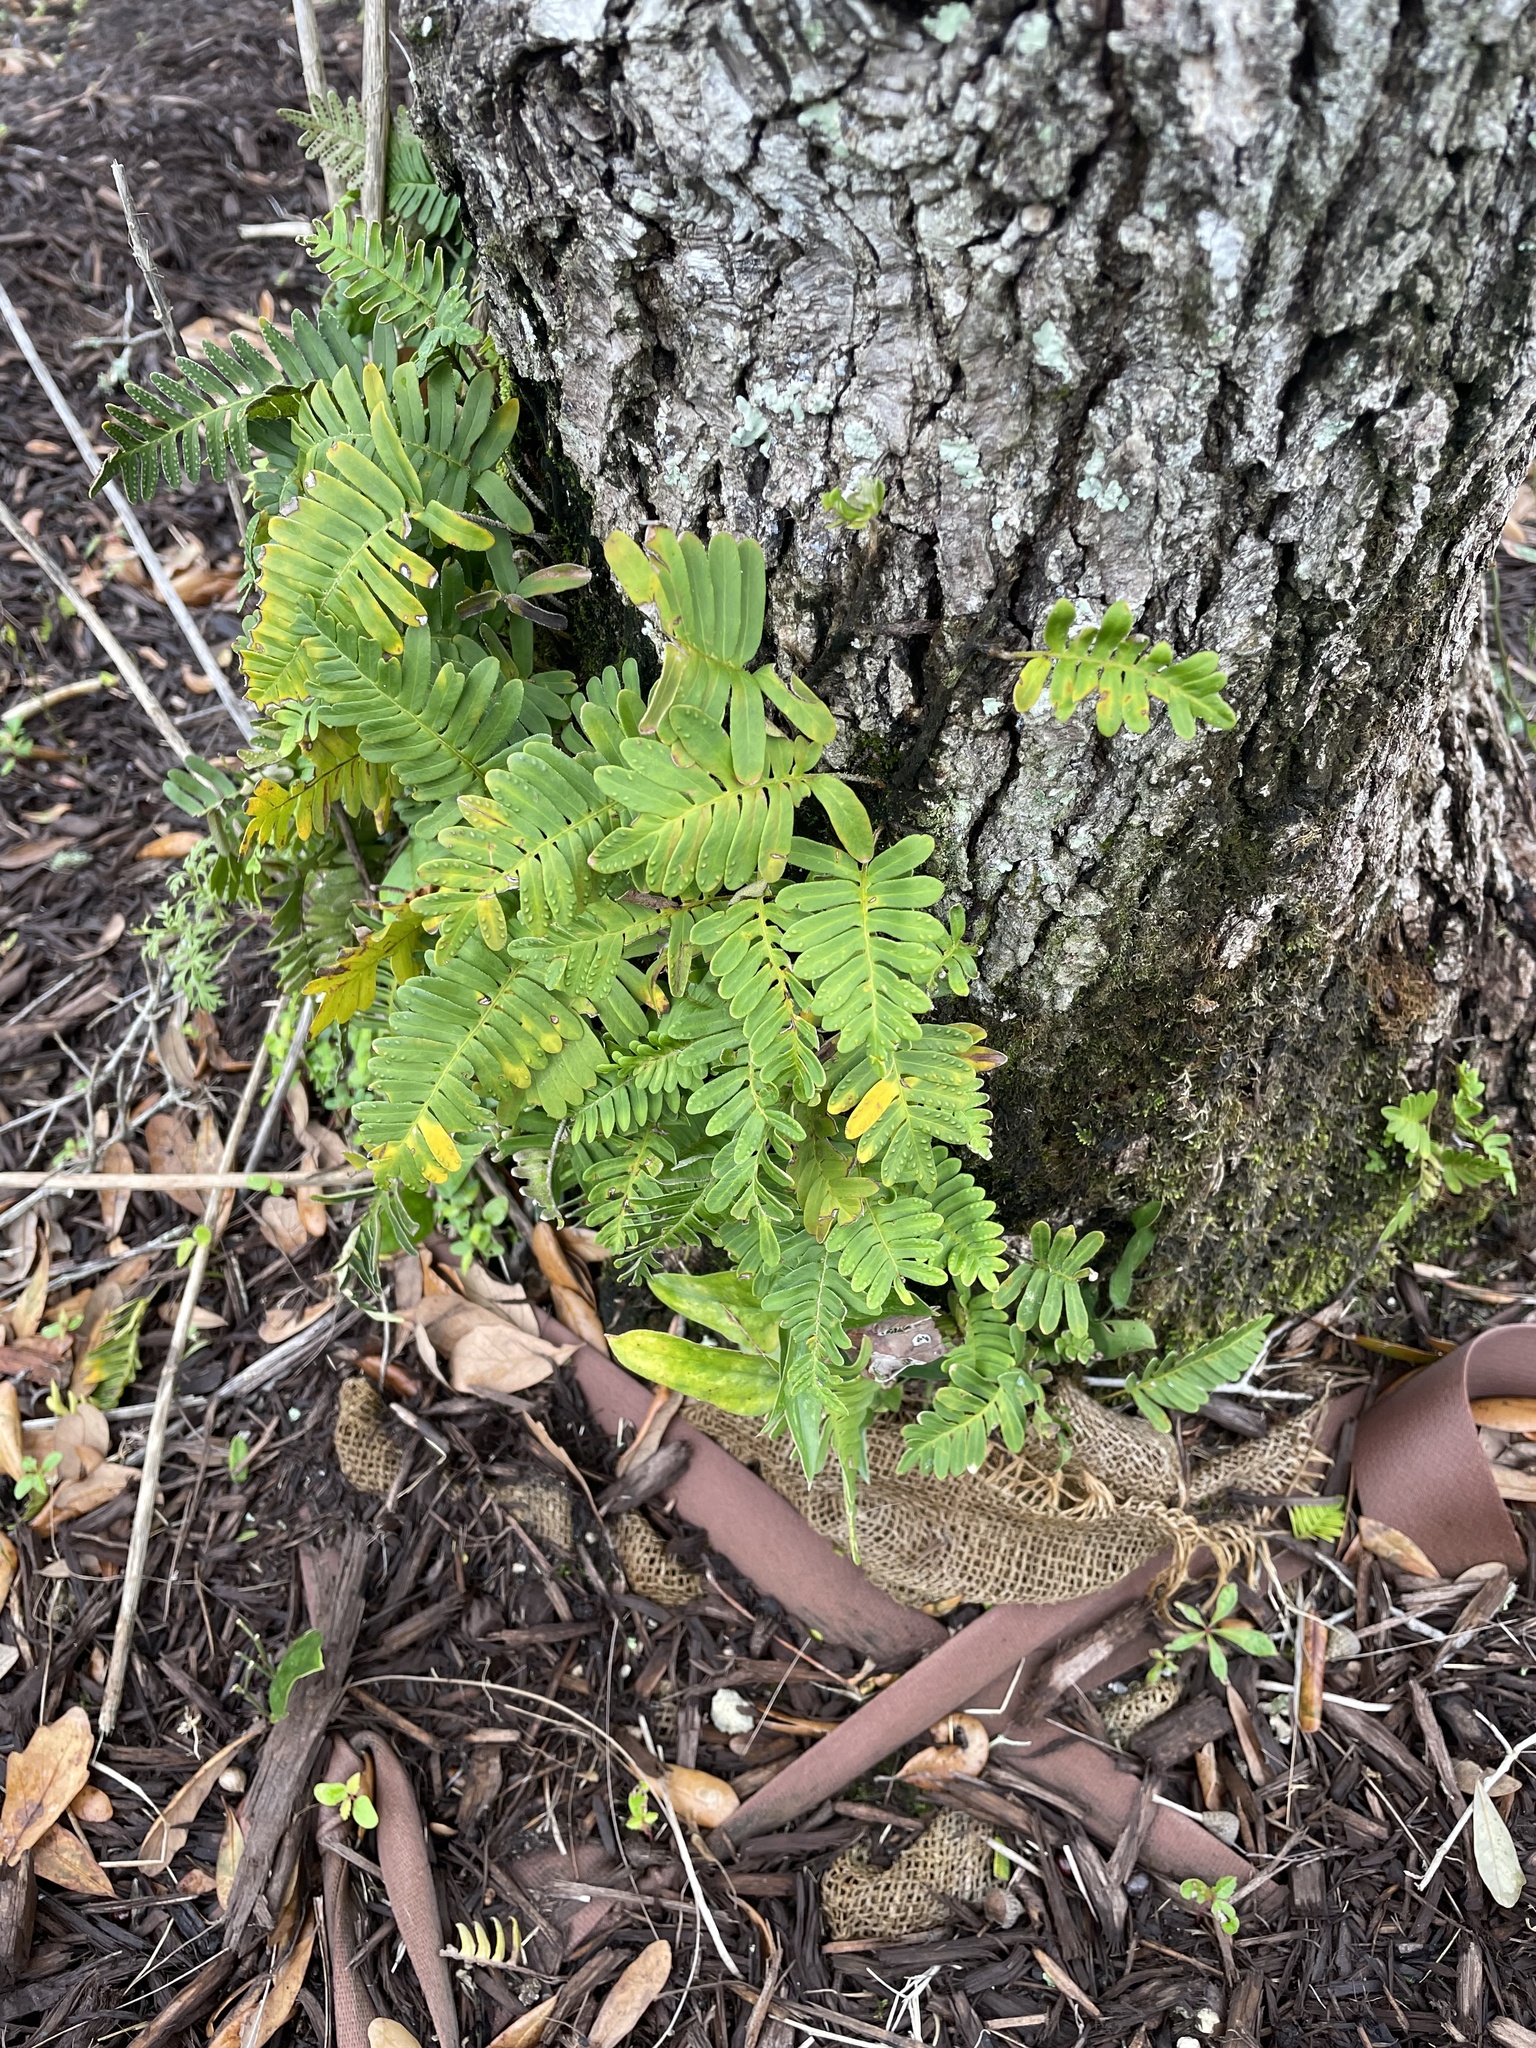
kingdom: Plantae
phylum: Tracheophyta
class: Polypodiopsida
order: Polypodiales
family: Polypodiaceae
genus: Pleopeltis
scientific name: Pleopeltis michauxiana
